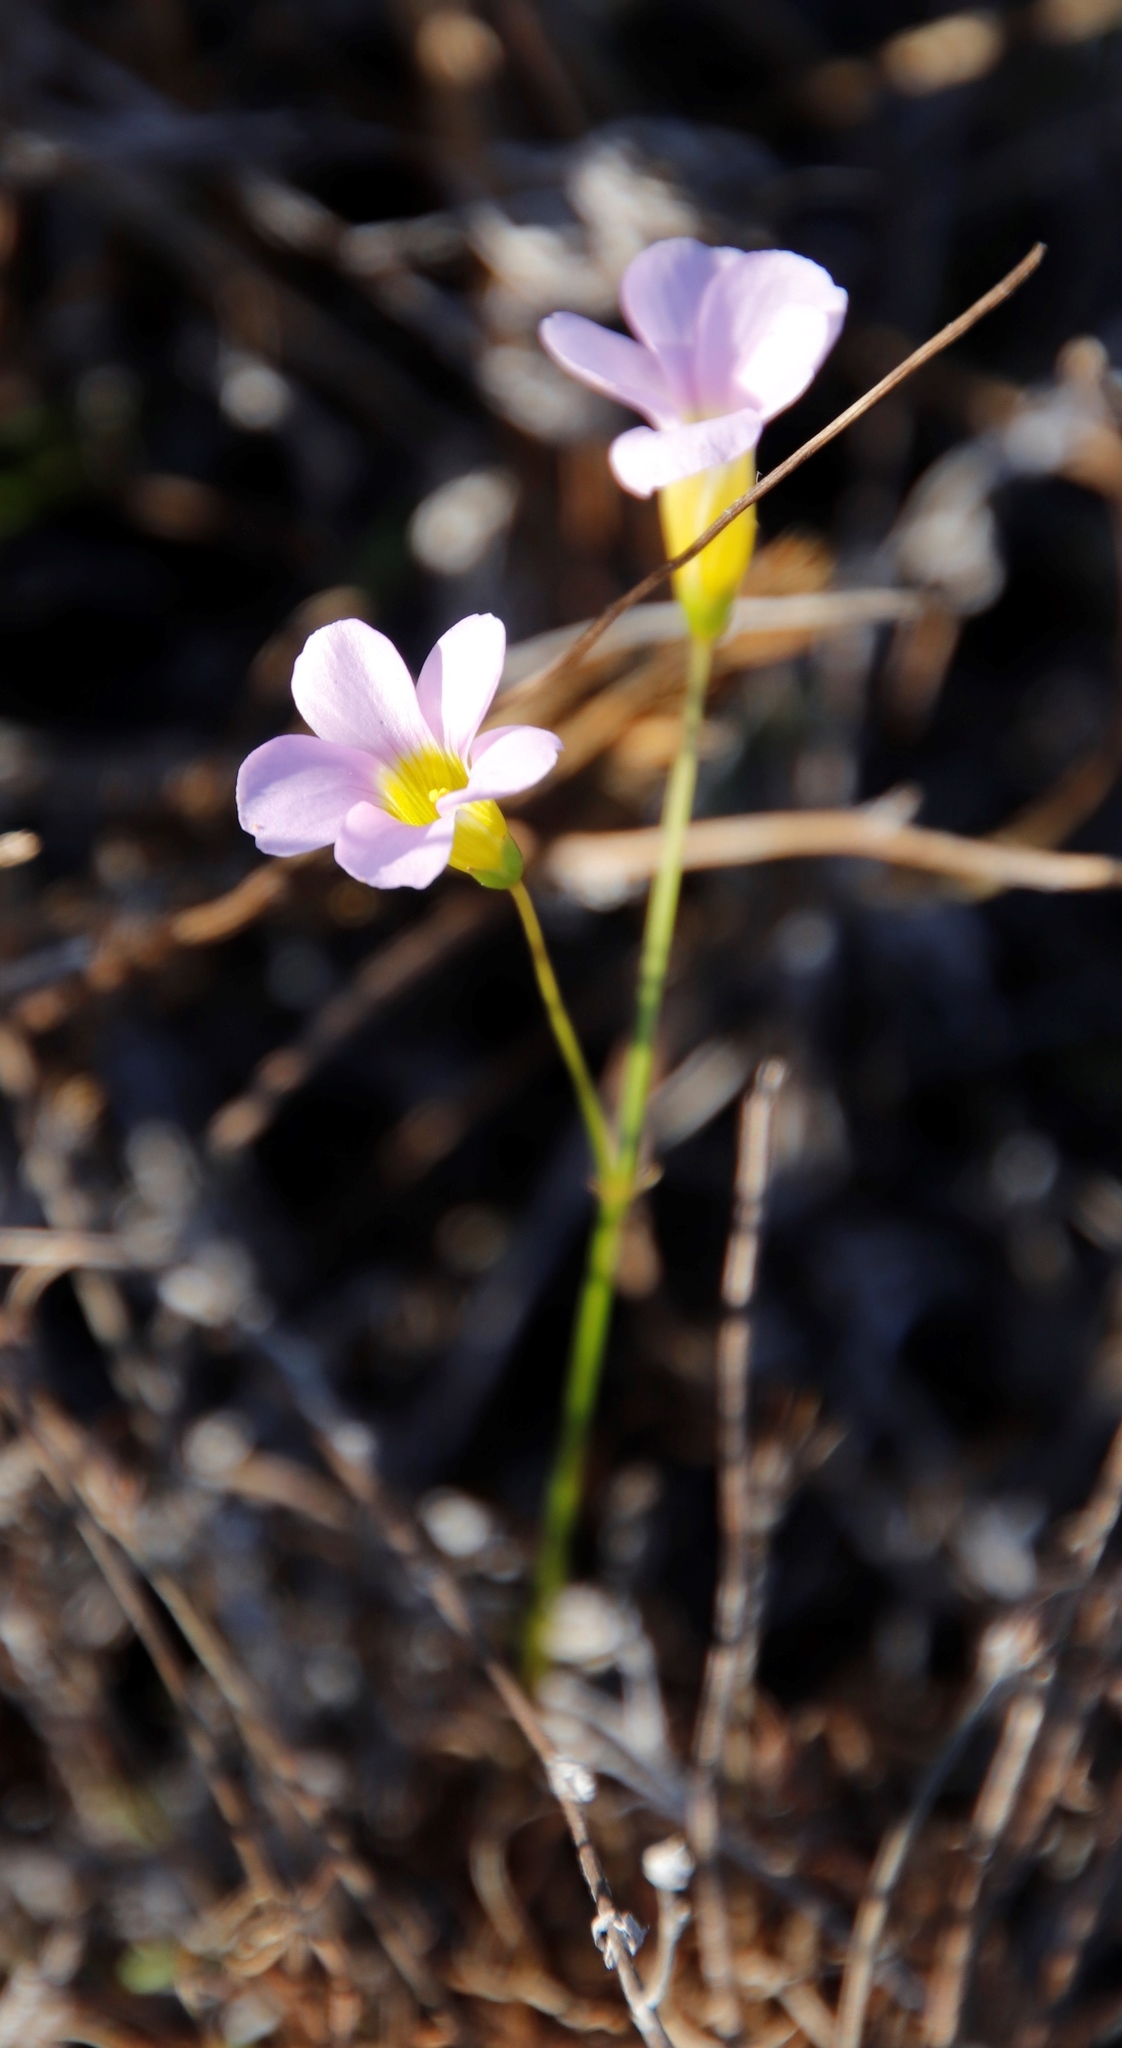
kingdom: Plantae
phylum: Tracheophyta
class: Magnoliopsida
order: Oxalidales
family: Oxalidaceae
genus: Oxalis
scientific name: Oxalis caprina
